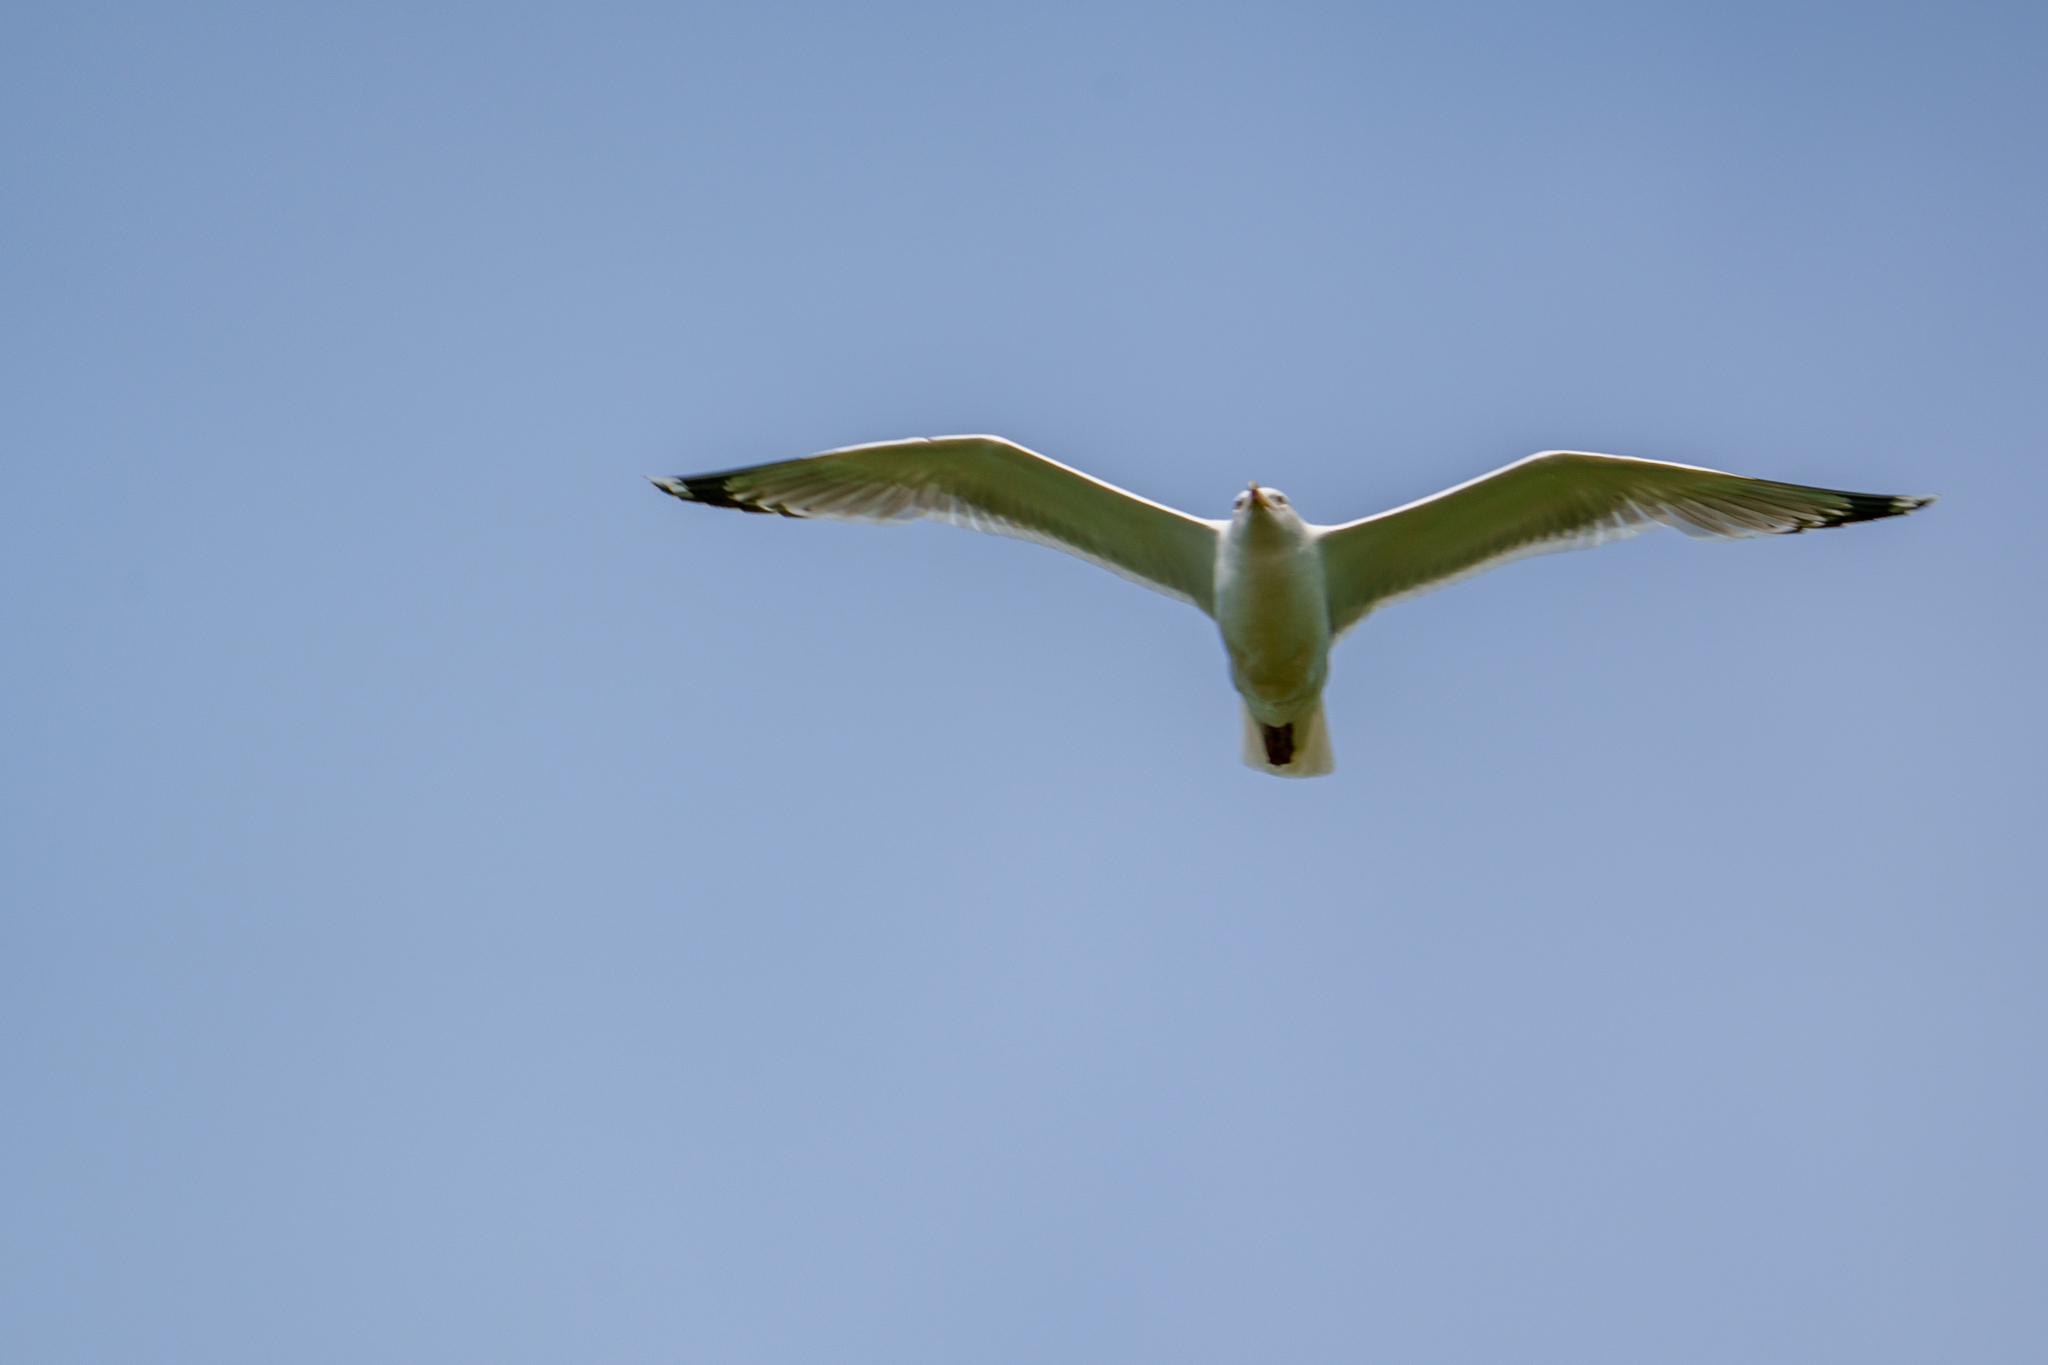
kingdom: Animalia
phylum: Chordata
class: Aves
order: Charadriiformes
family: Laridae
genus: Larus
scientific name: Larus cachinnans
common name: Caspian gull
